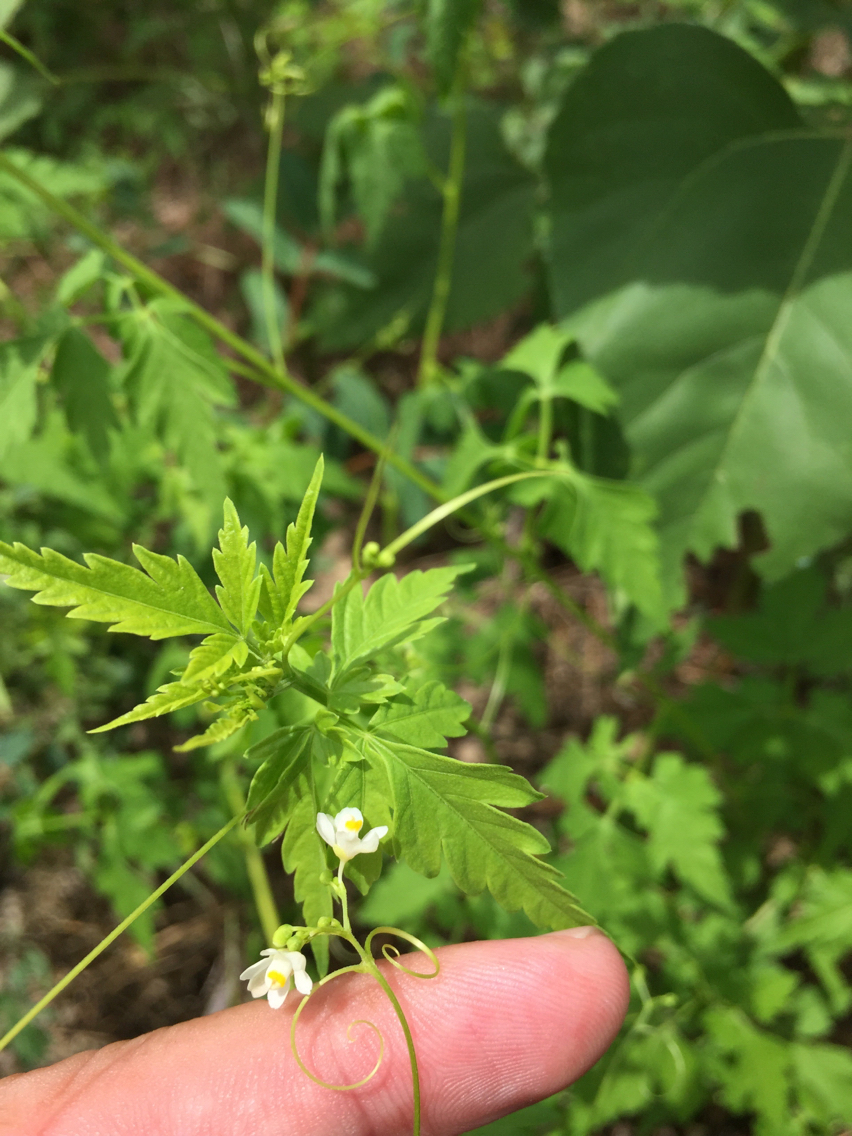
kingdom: Plantae
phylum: Tracheophyta
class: Magnoliopsida
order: Sapindales
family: Sapindaceae
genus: Cardiospermum
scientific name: Cardiospermum halicacabum
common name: Balloon vine
